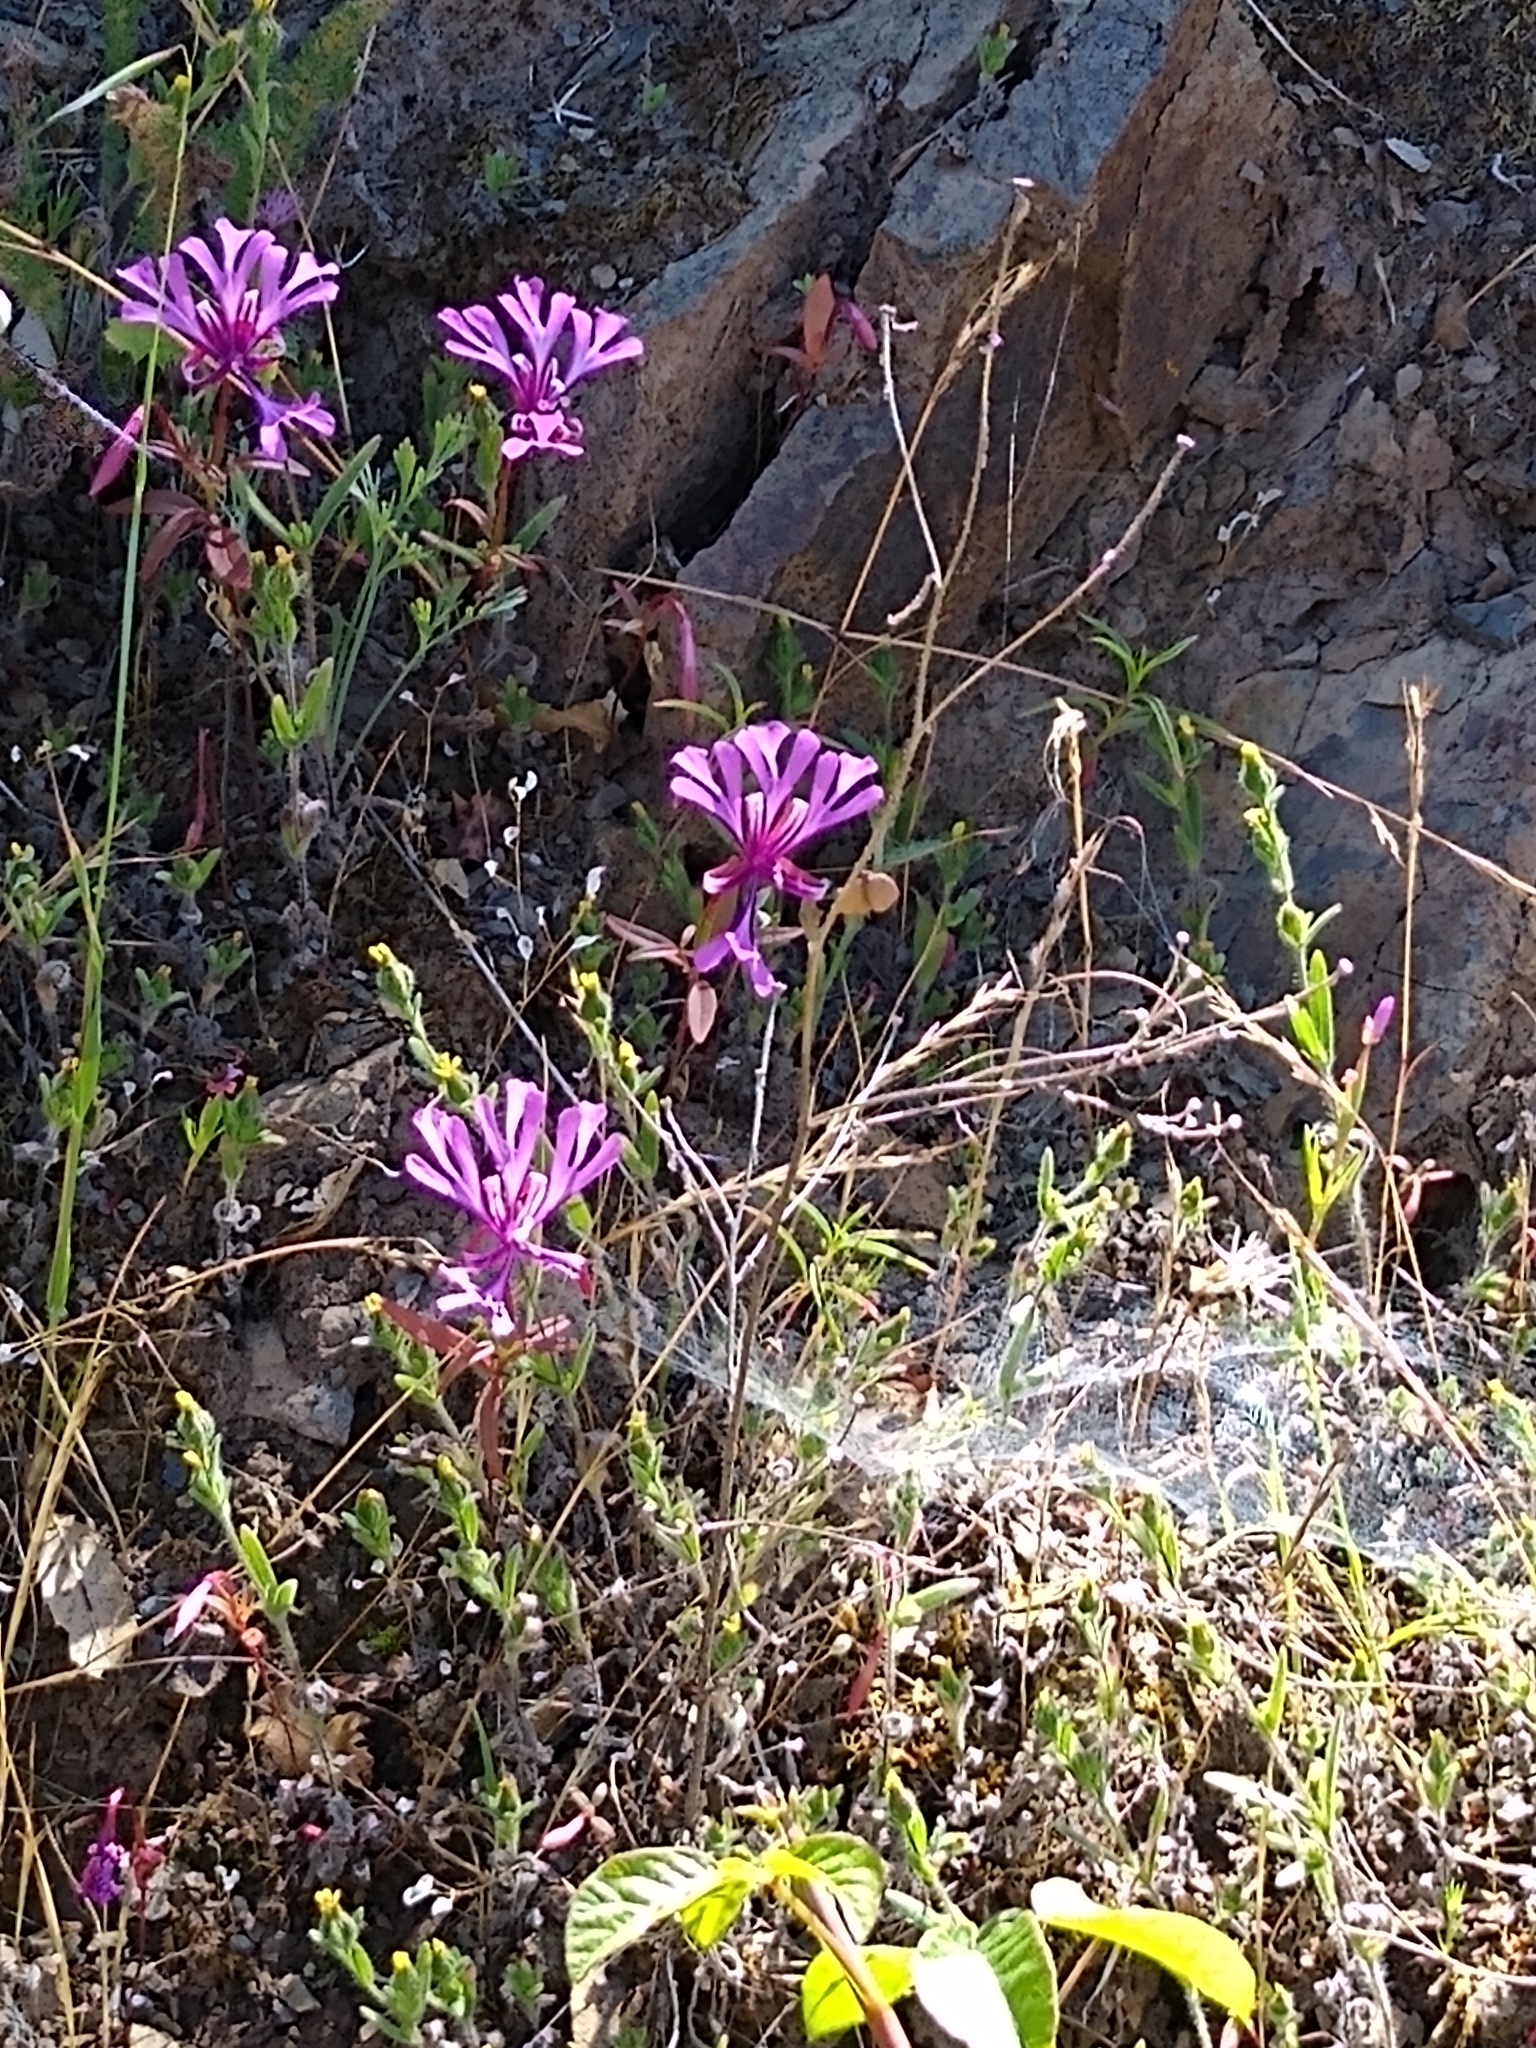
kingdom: Plantae
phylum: Tracheophyta
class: Magnoliopsida
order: Myrtales
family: Onagraceae
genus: Clarkia
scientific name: Clarkia concinna
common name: Red-ribbons
